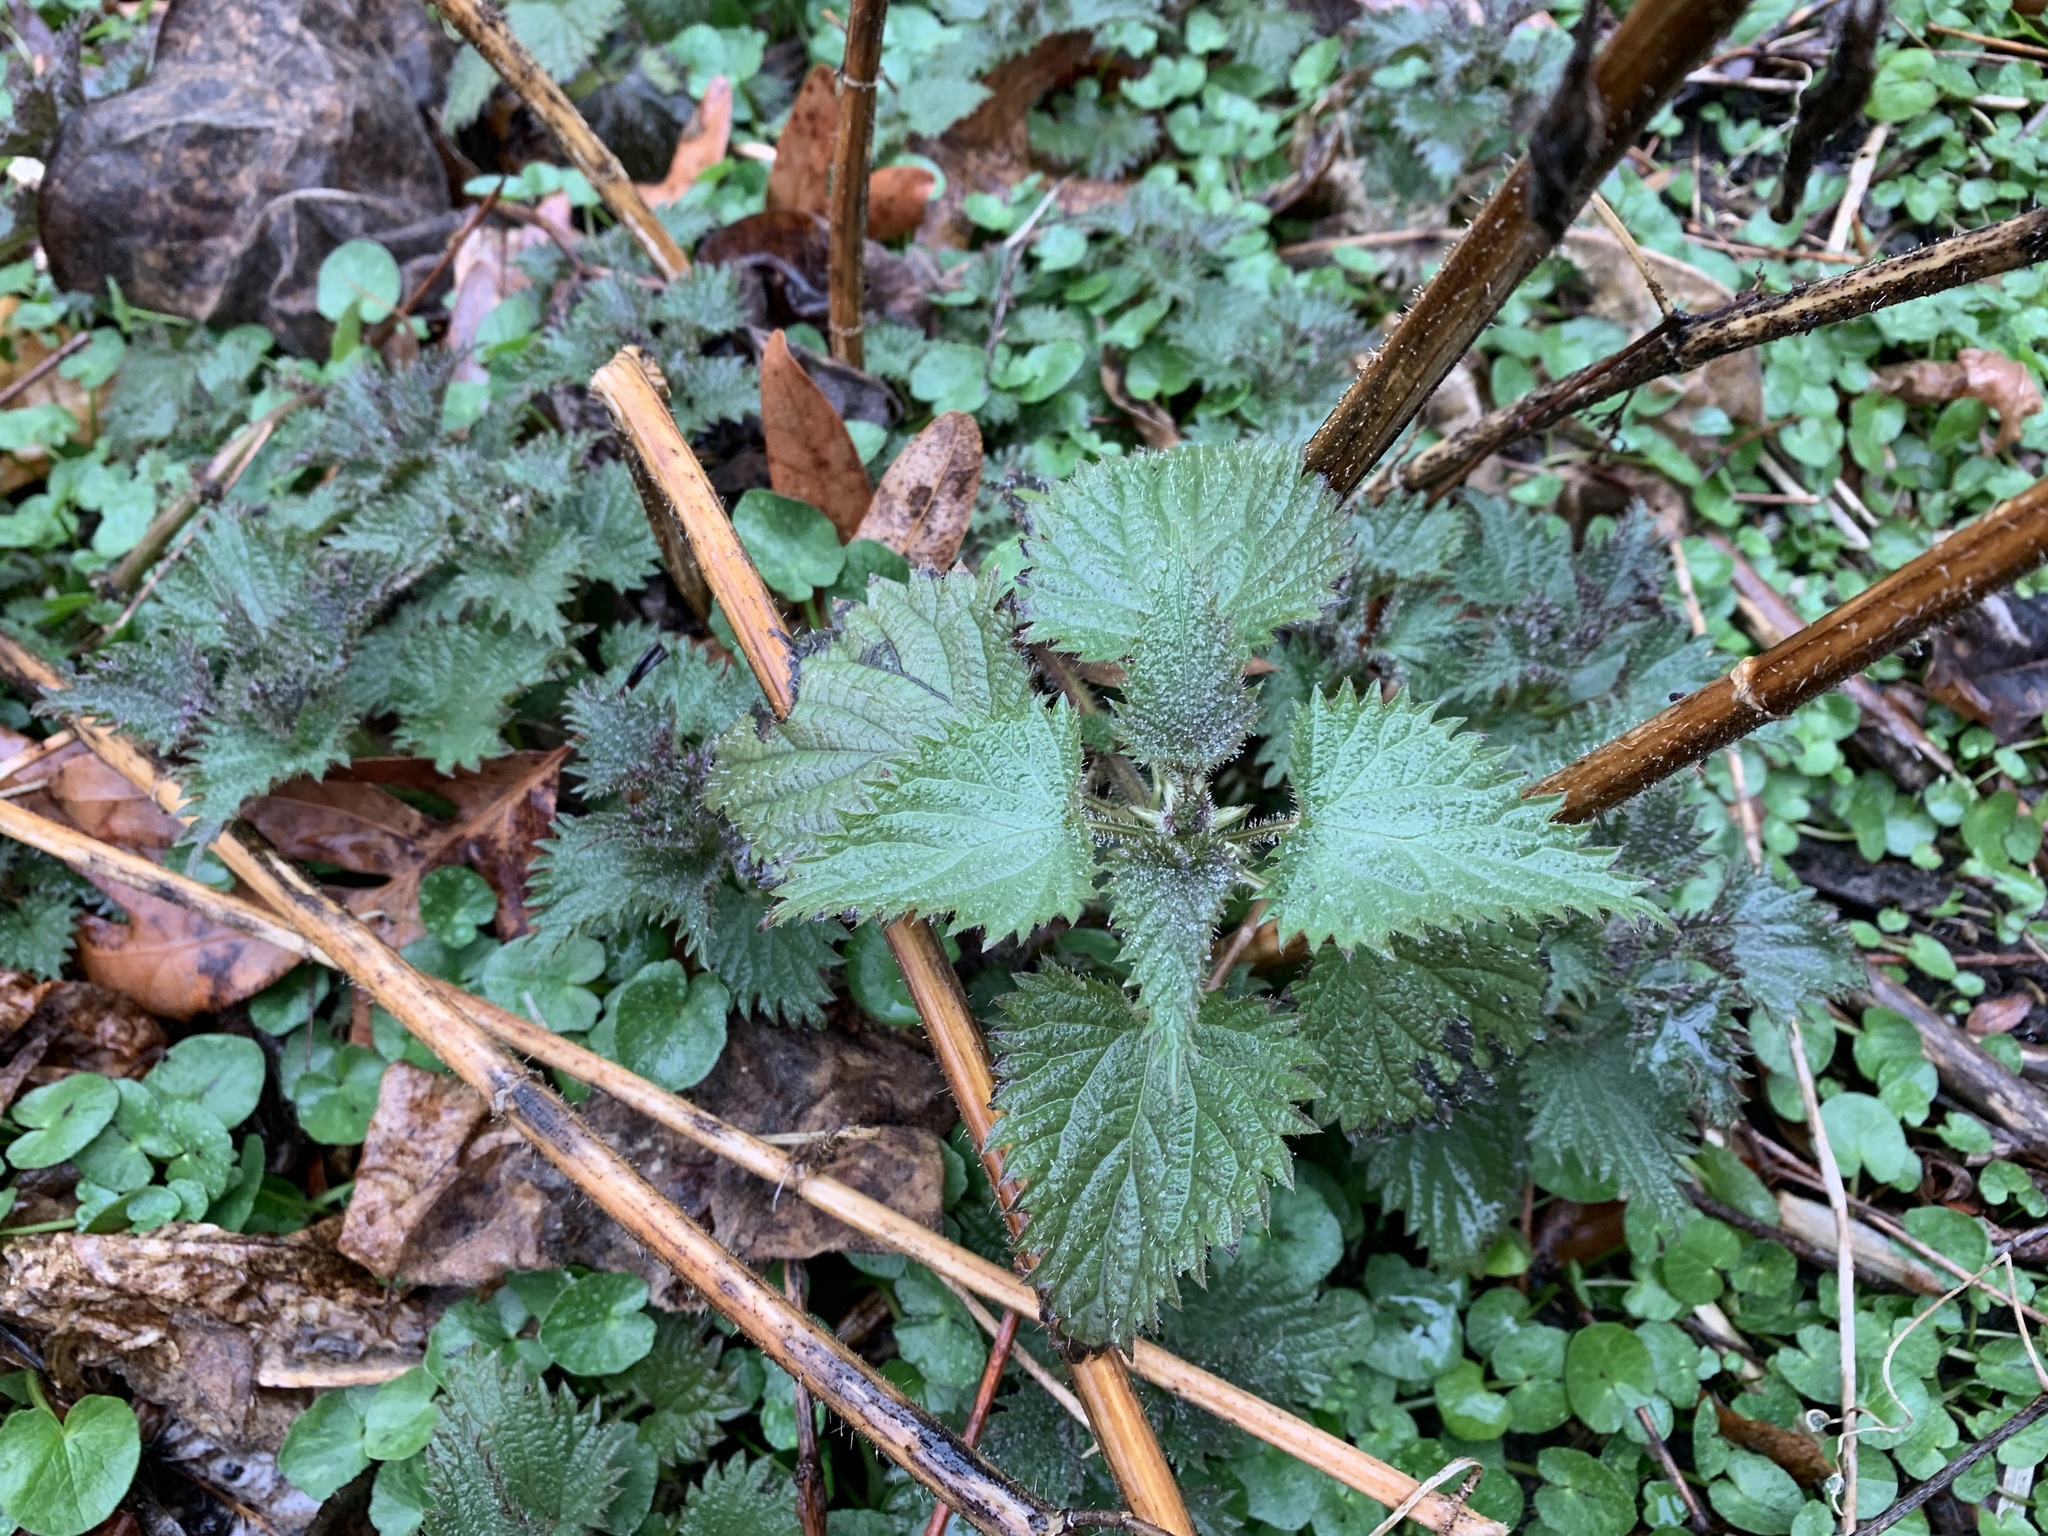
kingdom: Plantae
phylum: Tracheophyta
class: Magnoliopsida
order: Rosales
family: Urticaceae
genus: Urtica
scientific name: Urtica dioica
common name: Common nettle
